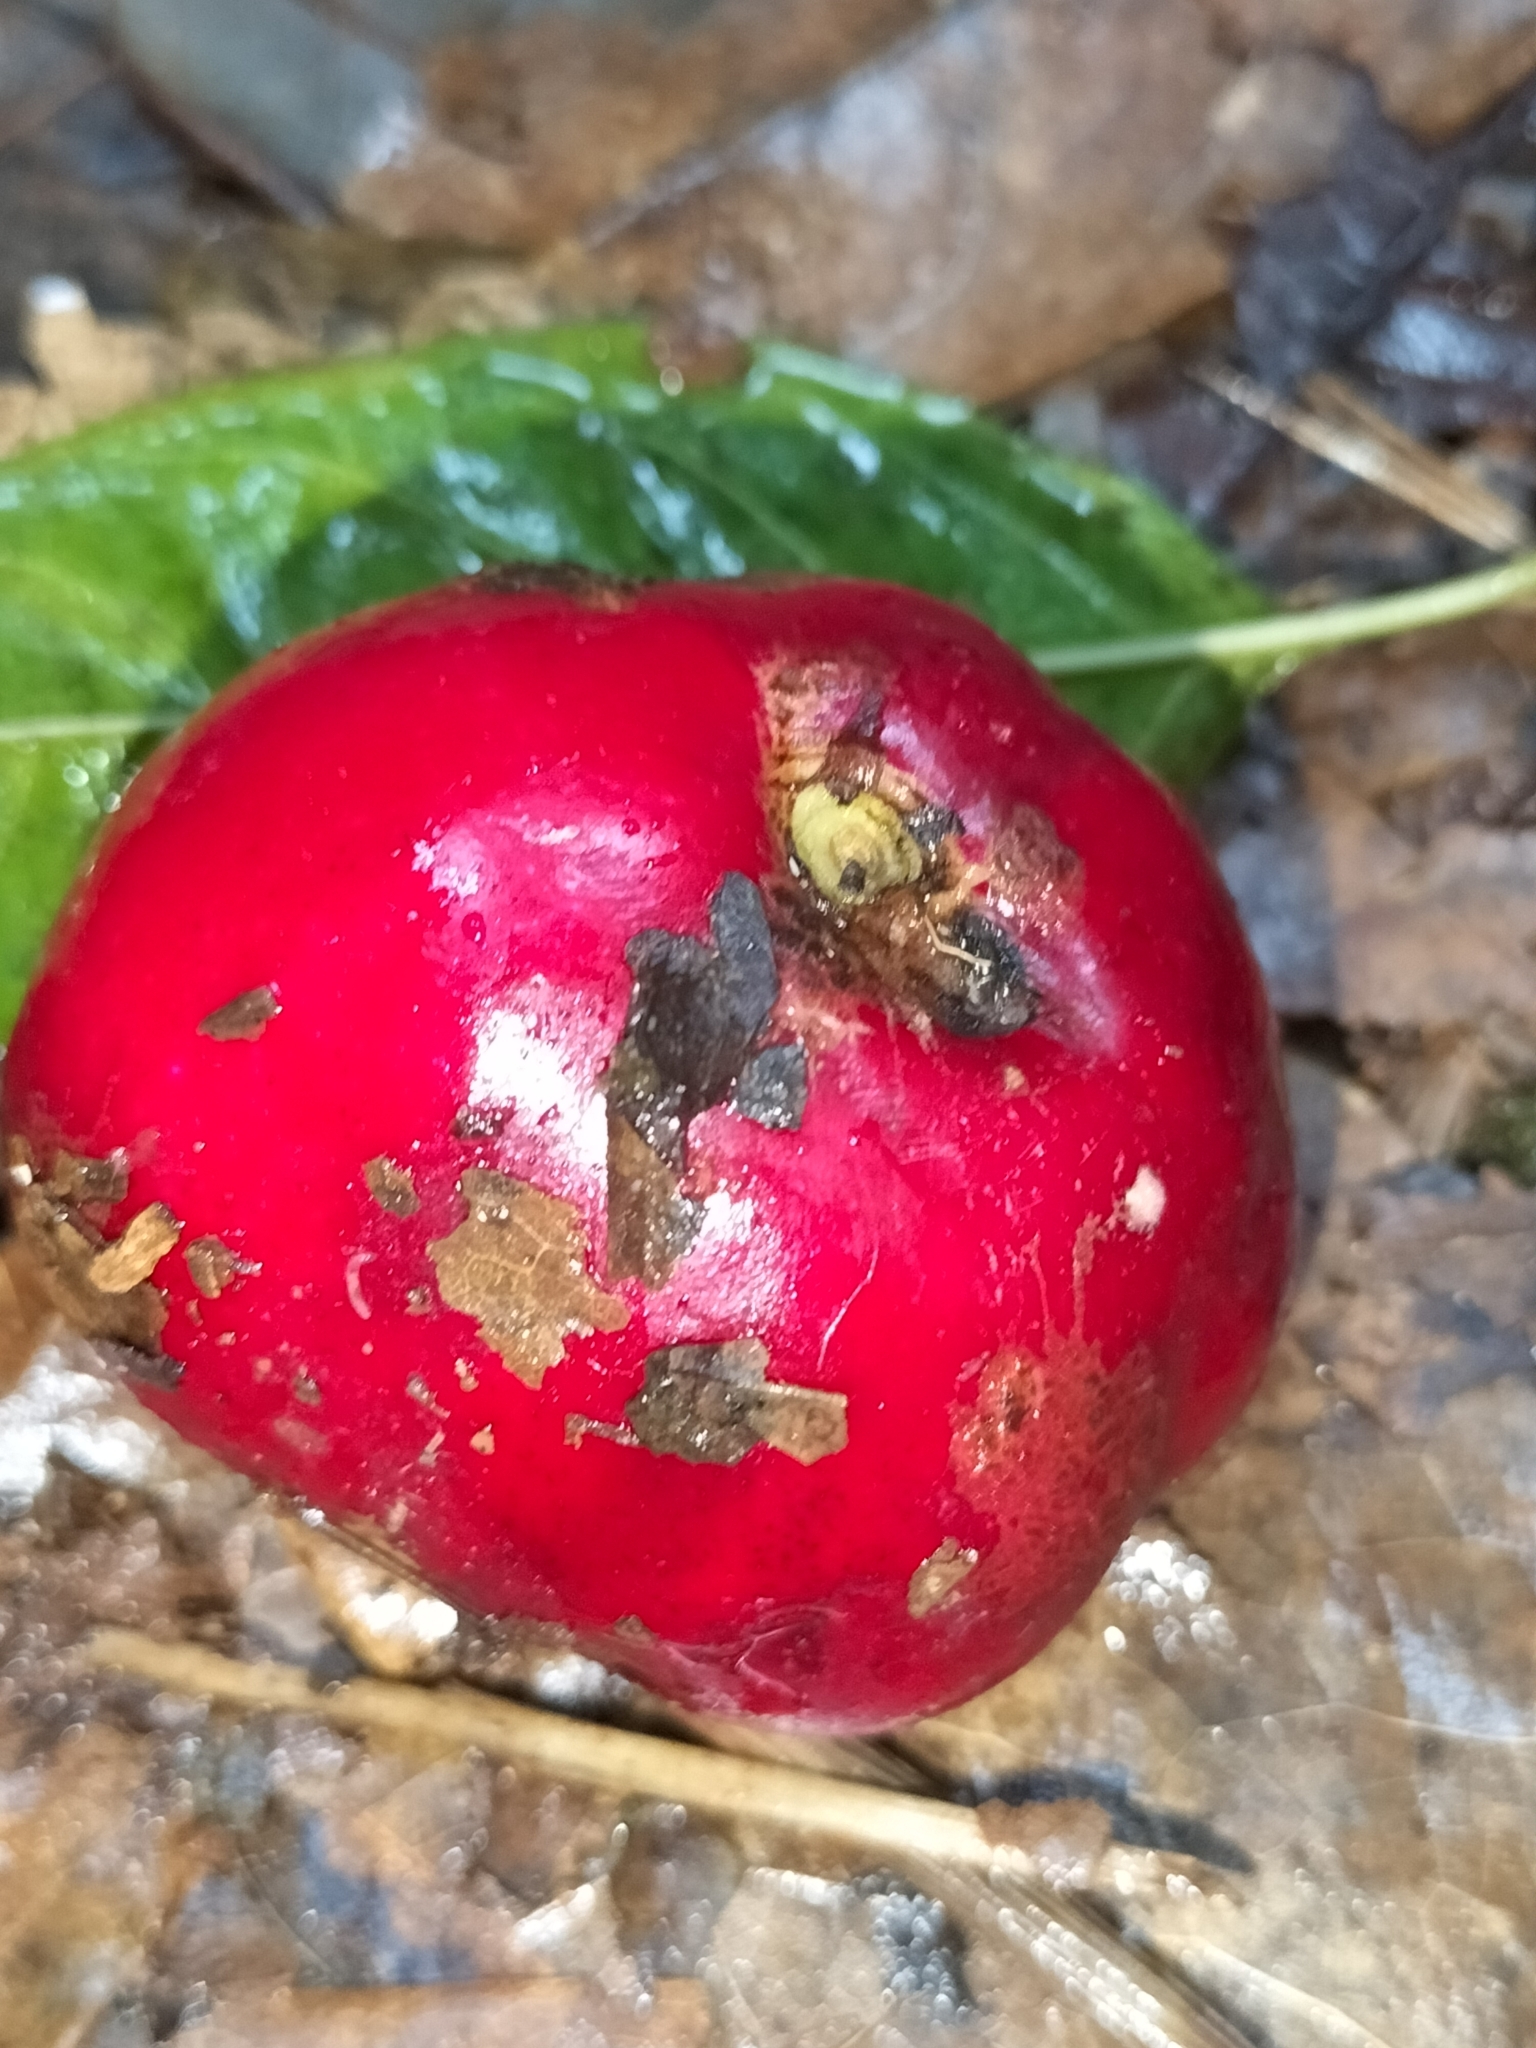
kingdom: Plantae
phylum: Tracheophyta
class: Magnoliopsida
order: Malvales
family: Thymelaeaceae
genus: Phaleria
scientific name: Phaleria clerodendron
